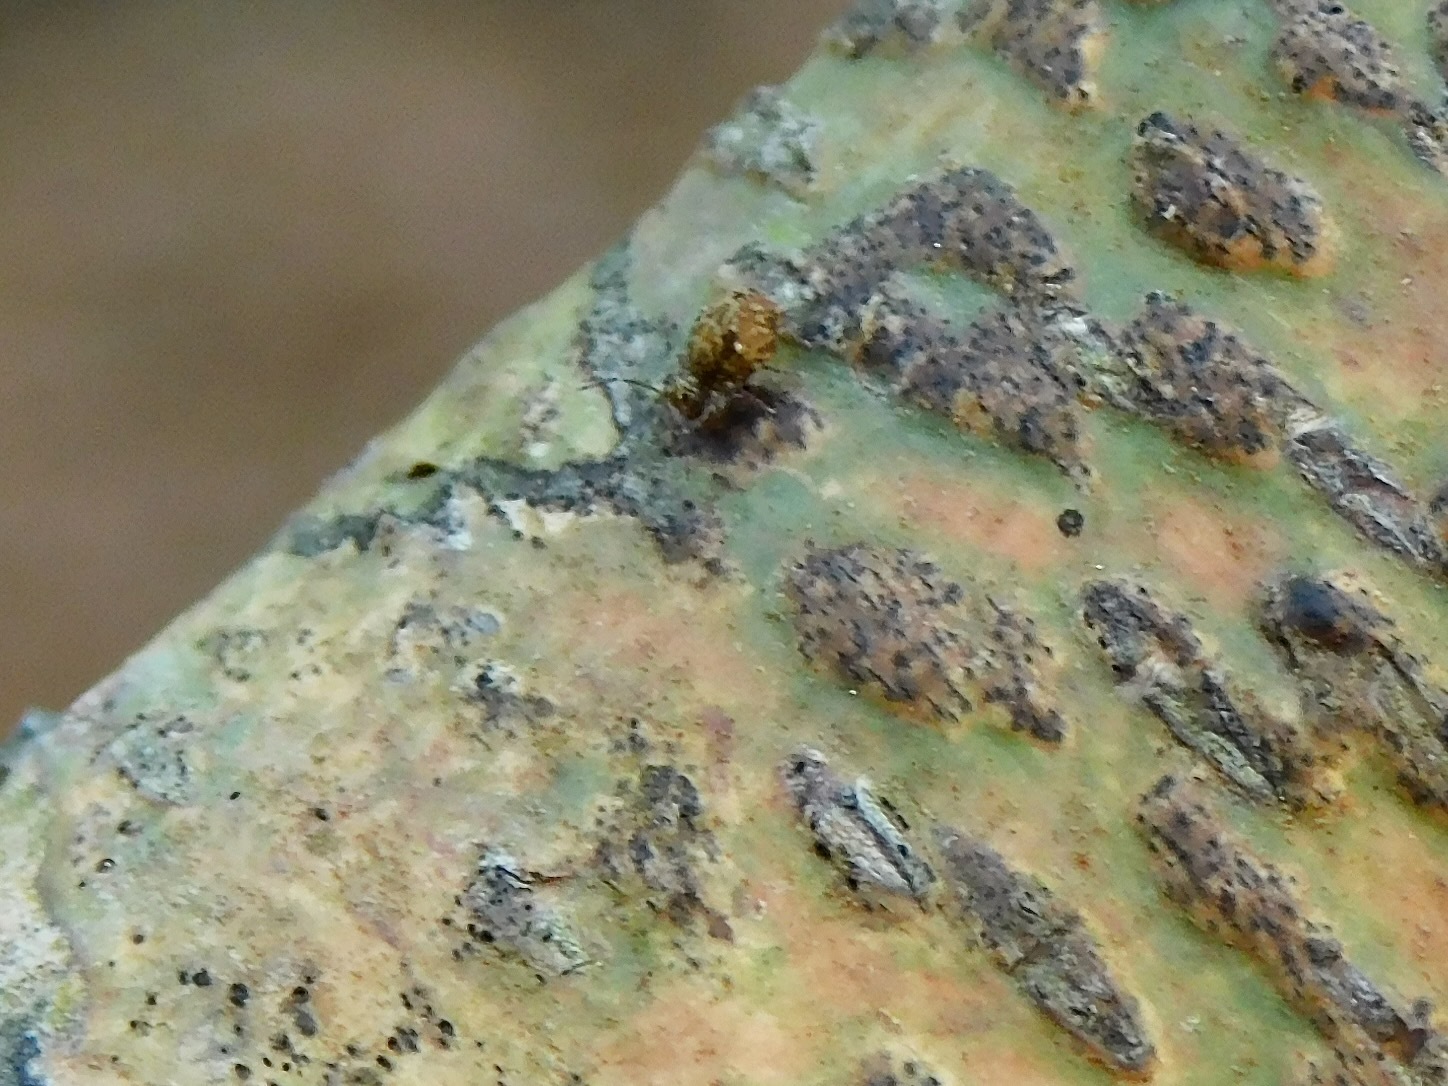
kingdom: Animalia
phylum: Arthropoda
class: Collembola
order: Symphypleona
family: Dicyrtomidae
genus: Dicyrtomina
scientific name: Dicyrtomina minuta
